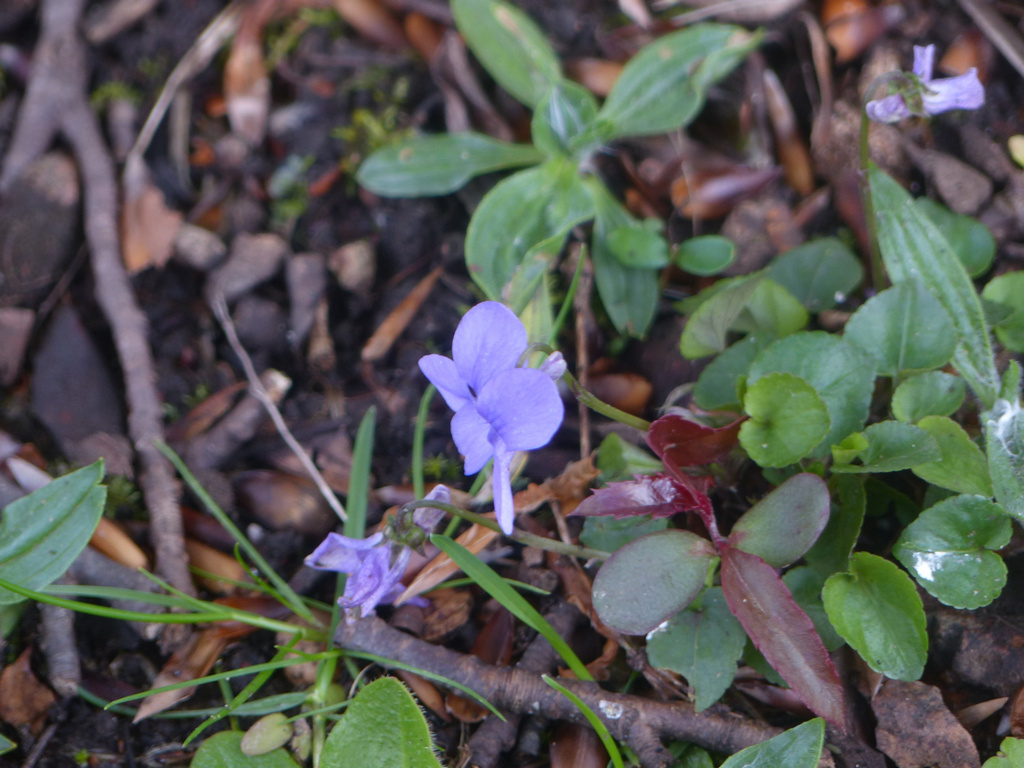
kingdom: Plantae
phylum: Tracheophyta
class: Magnoliopsida
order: Malpighiales
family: Violaceae
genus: Viola
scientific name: Viola riviniana
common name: Common dog-violet
